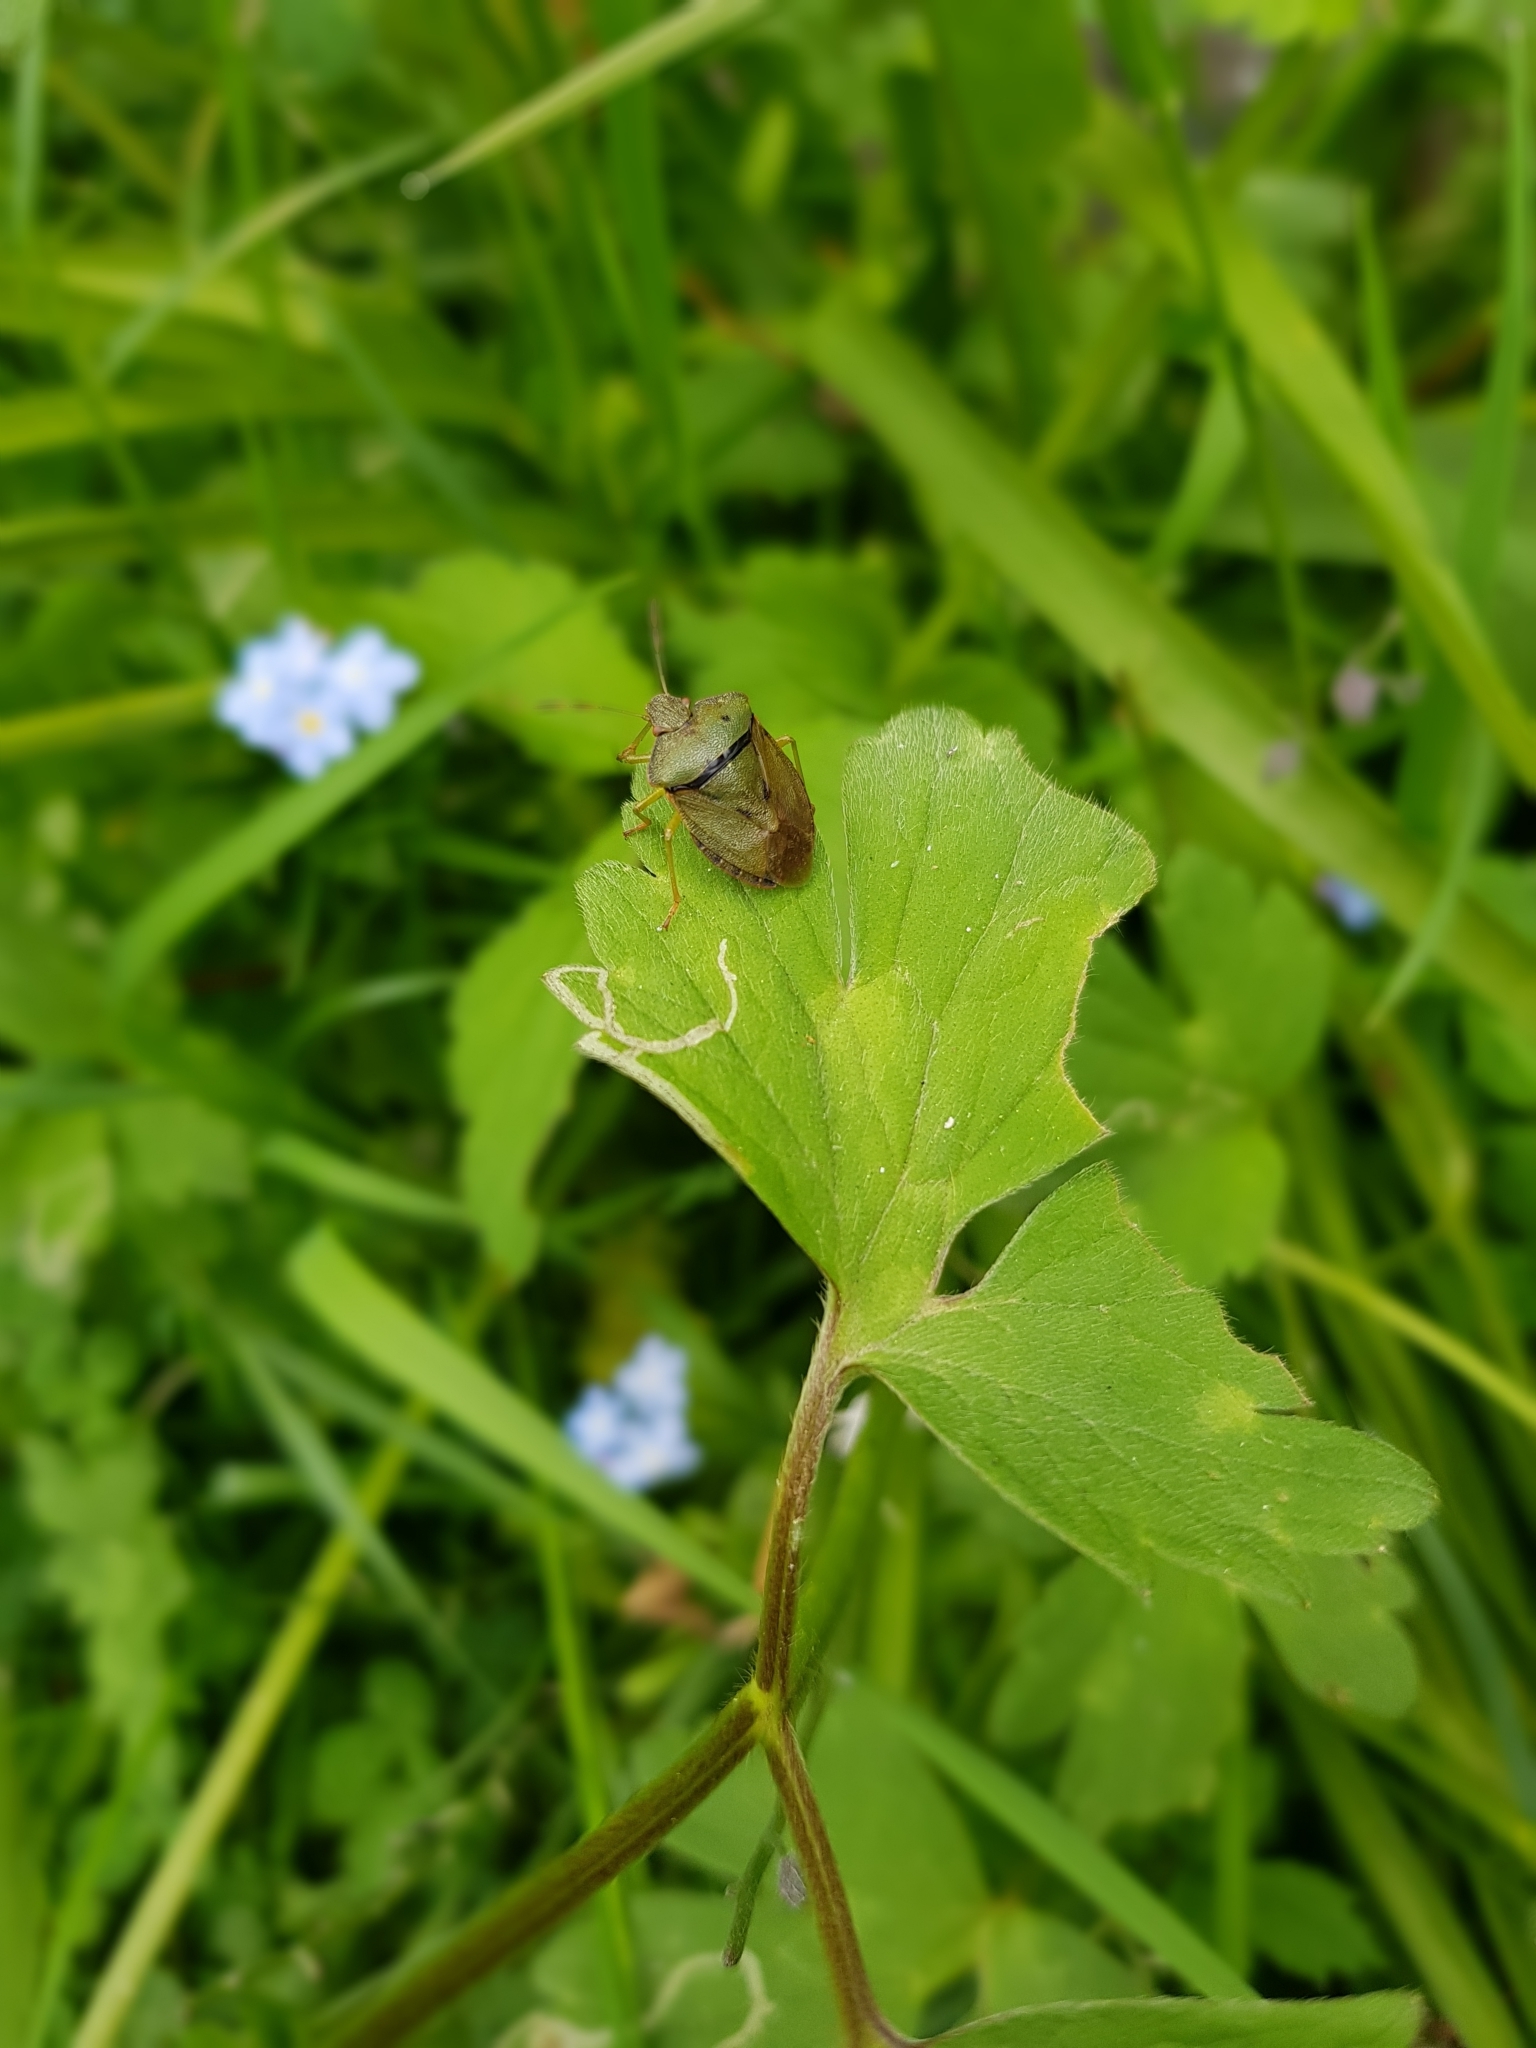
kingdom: Animalia
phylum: Arthropoda
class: Insecta
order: Hemiptera
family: Pentatomidae
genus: Palomena
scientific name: Palomena prasina
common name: Green shieldbug
